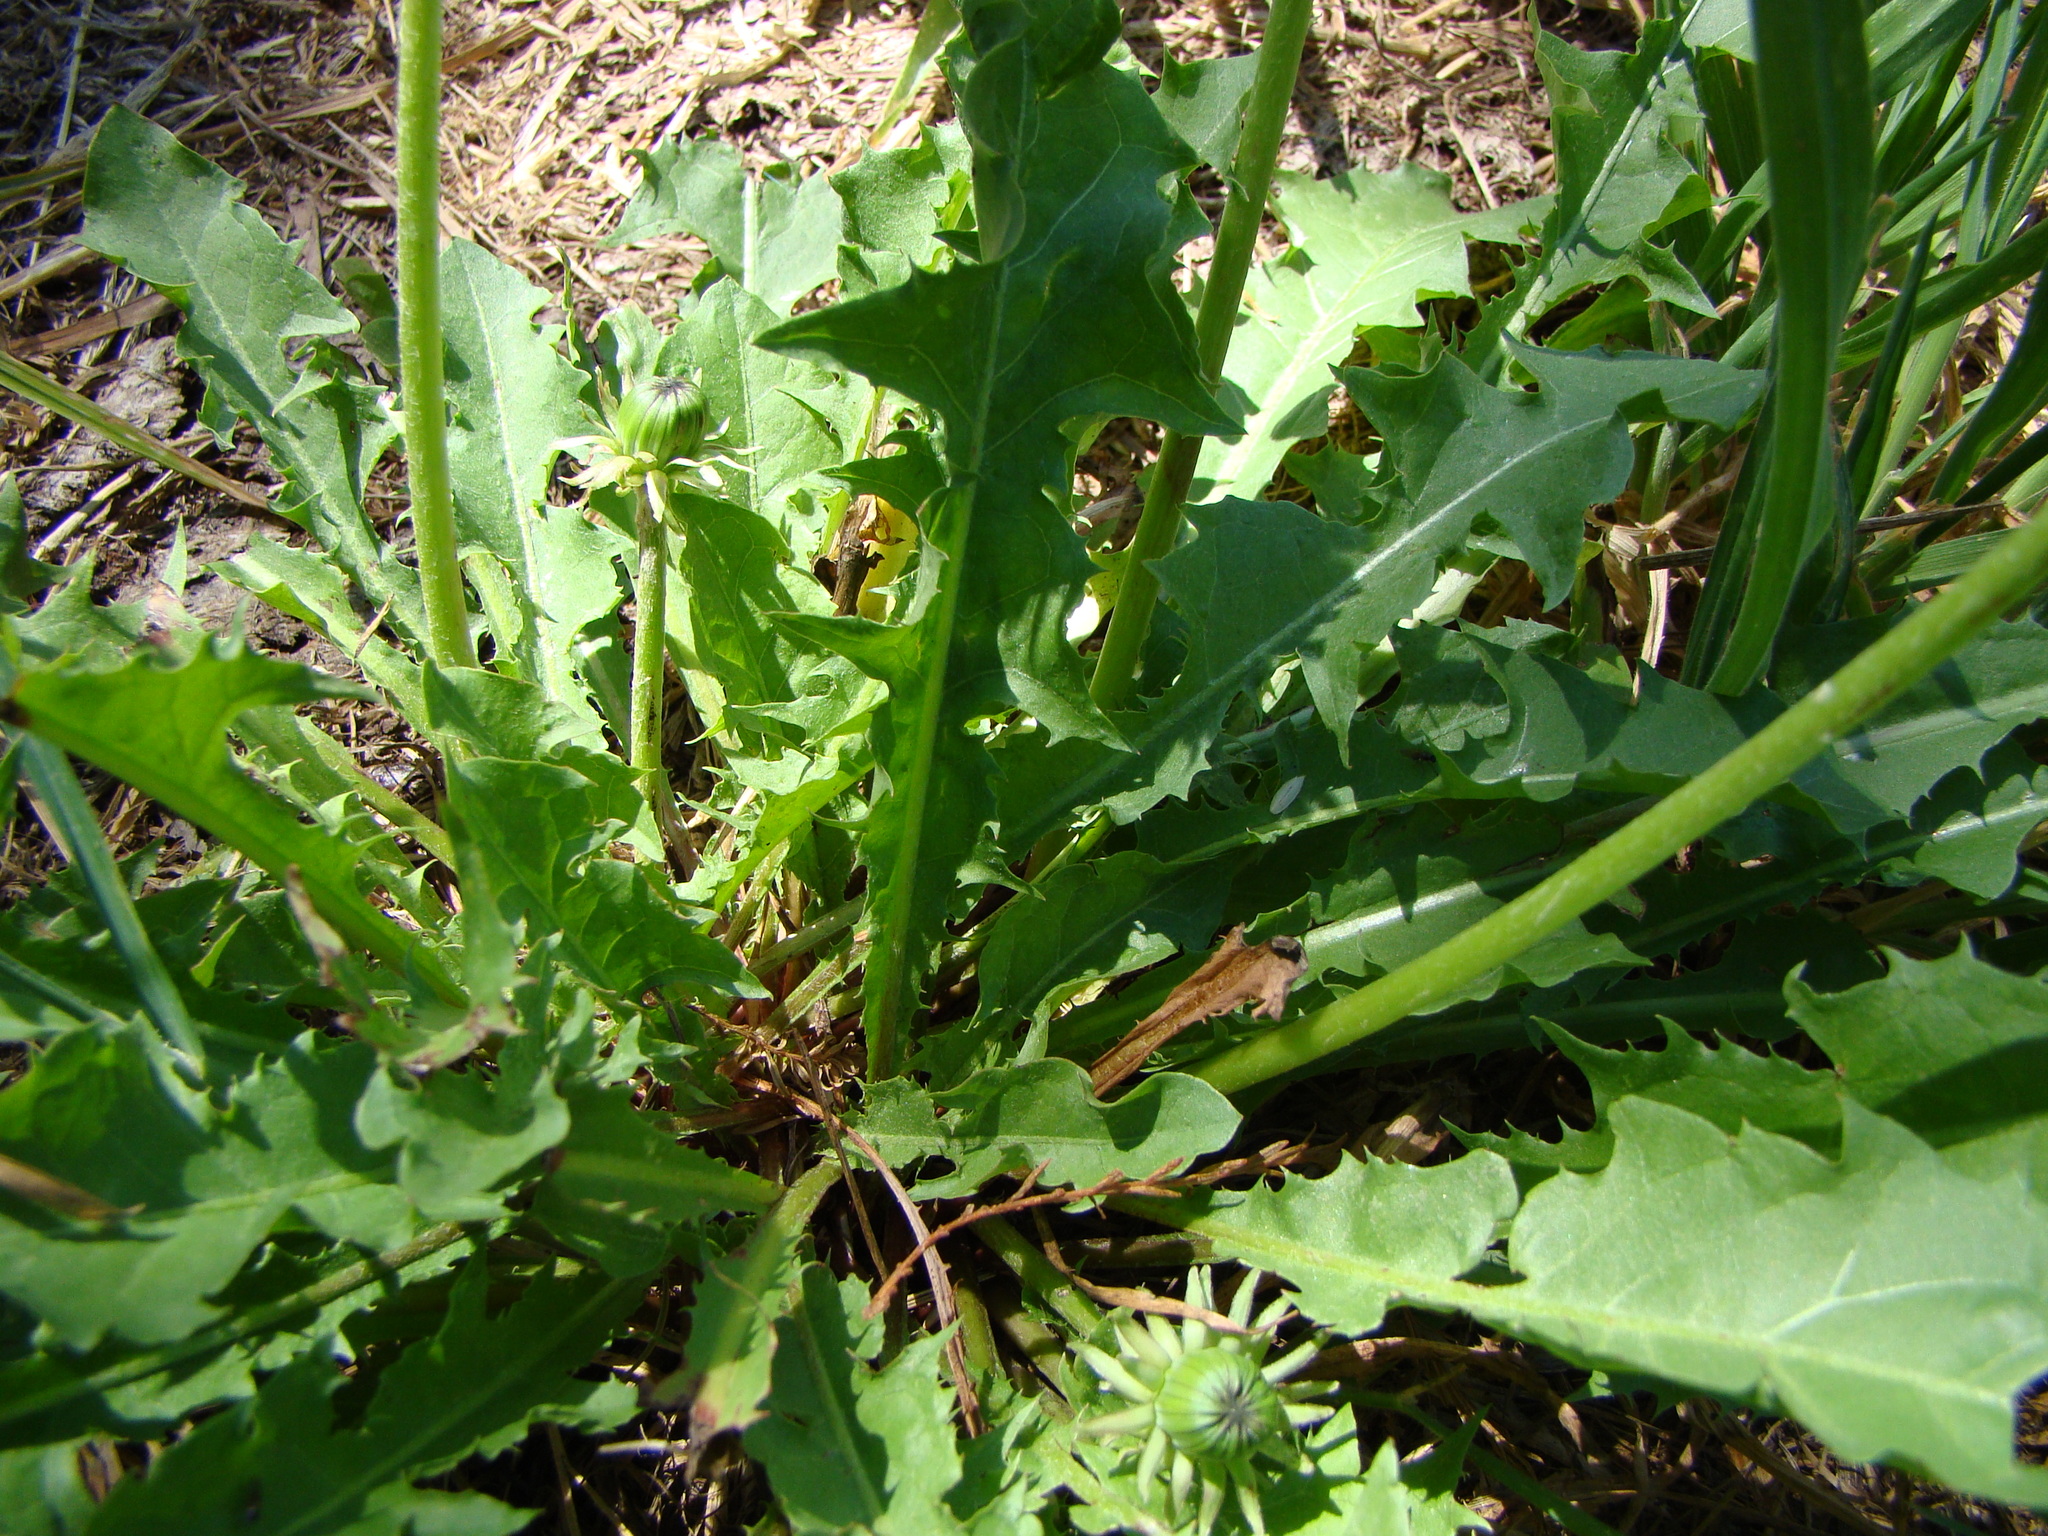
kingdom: Plantae
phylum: Tracheophyta
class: Magnoliopsida
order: Asterales
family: Asteraceae
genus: Taraxacum
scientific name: Taraxacum officinale
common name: Common dandelion
